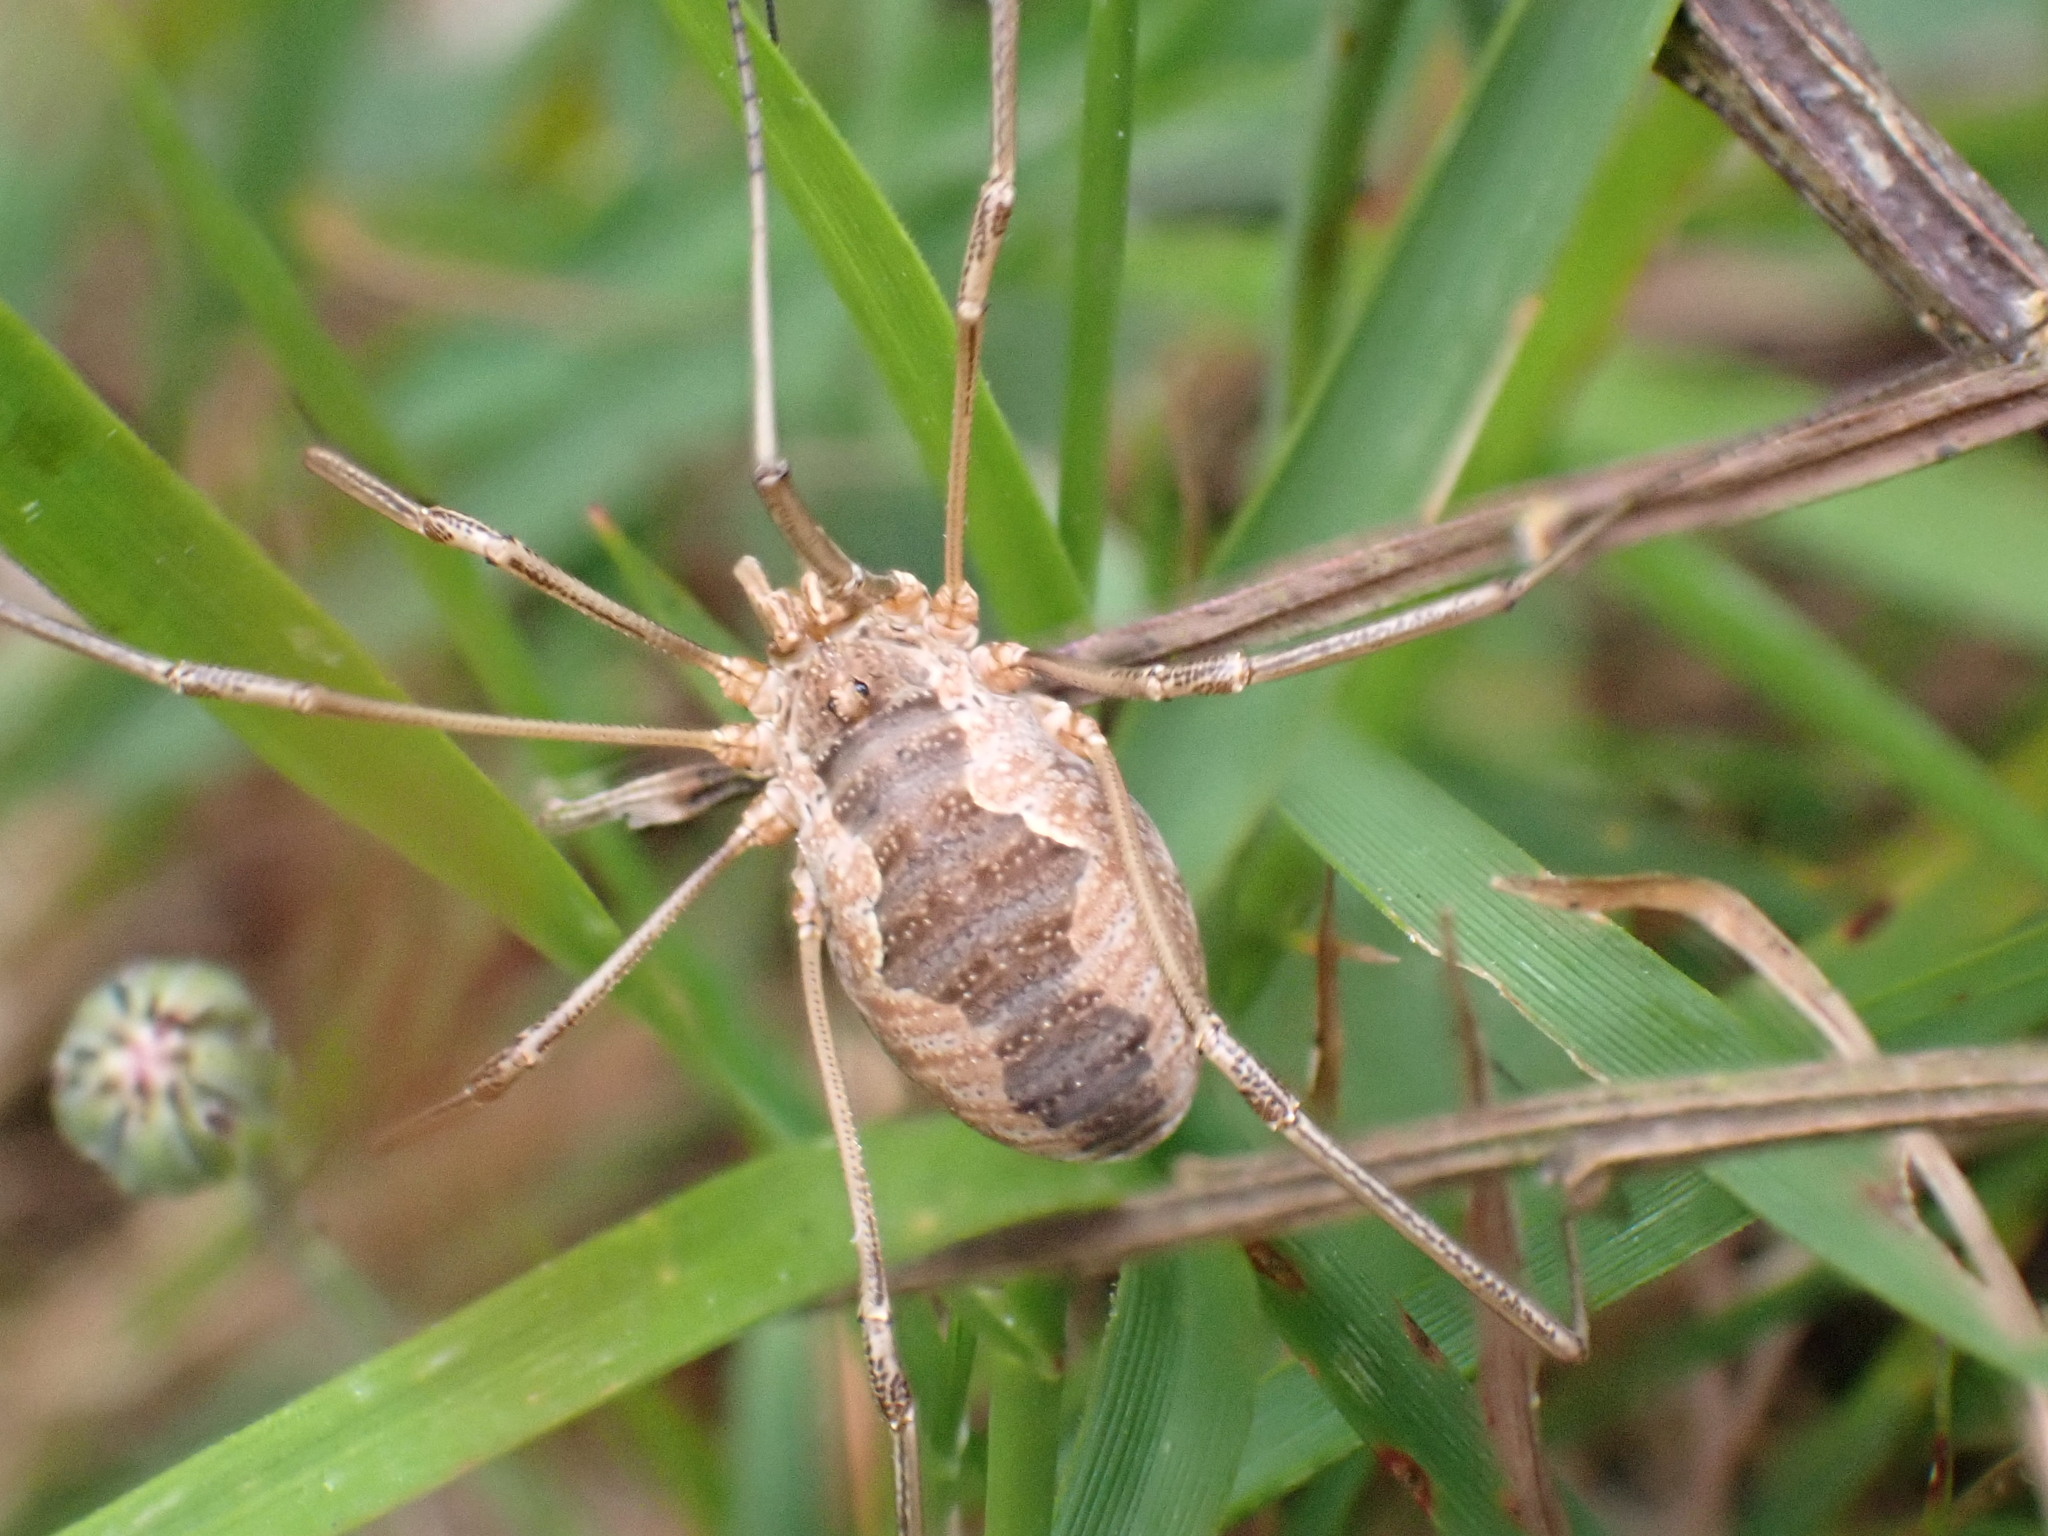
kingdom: Animalia
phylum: Arthropoda
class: Arachnida
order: Opiliones
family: Phalangiidae
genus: Phalangium
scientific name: Phalangium opilio
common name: Daddy longleg
